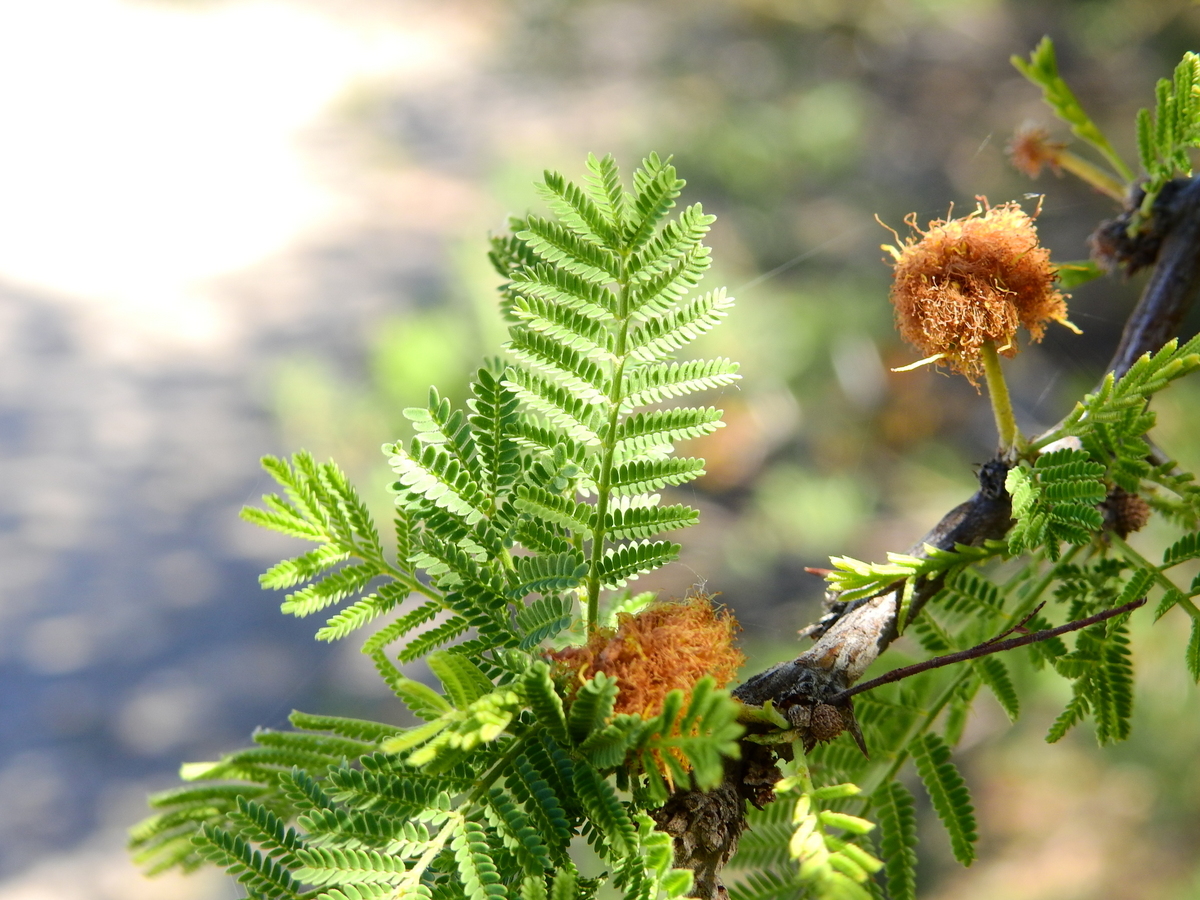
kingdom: Plantae
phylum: Tracheophyta
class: Magnoliopsida
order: Fabales
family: Fabaceae
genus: Vachellia
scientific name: Vachellia caven
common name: Roman cassie
